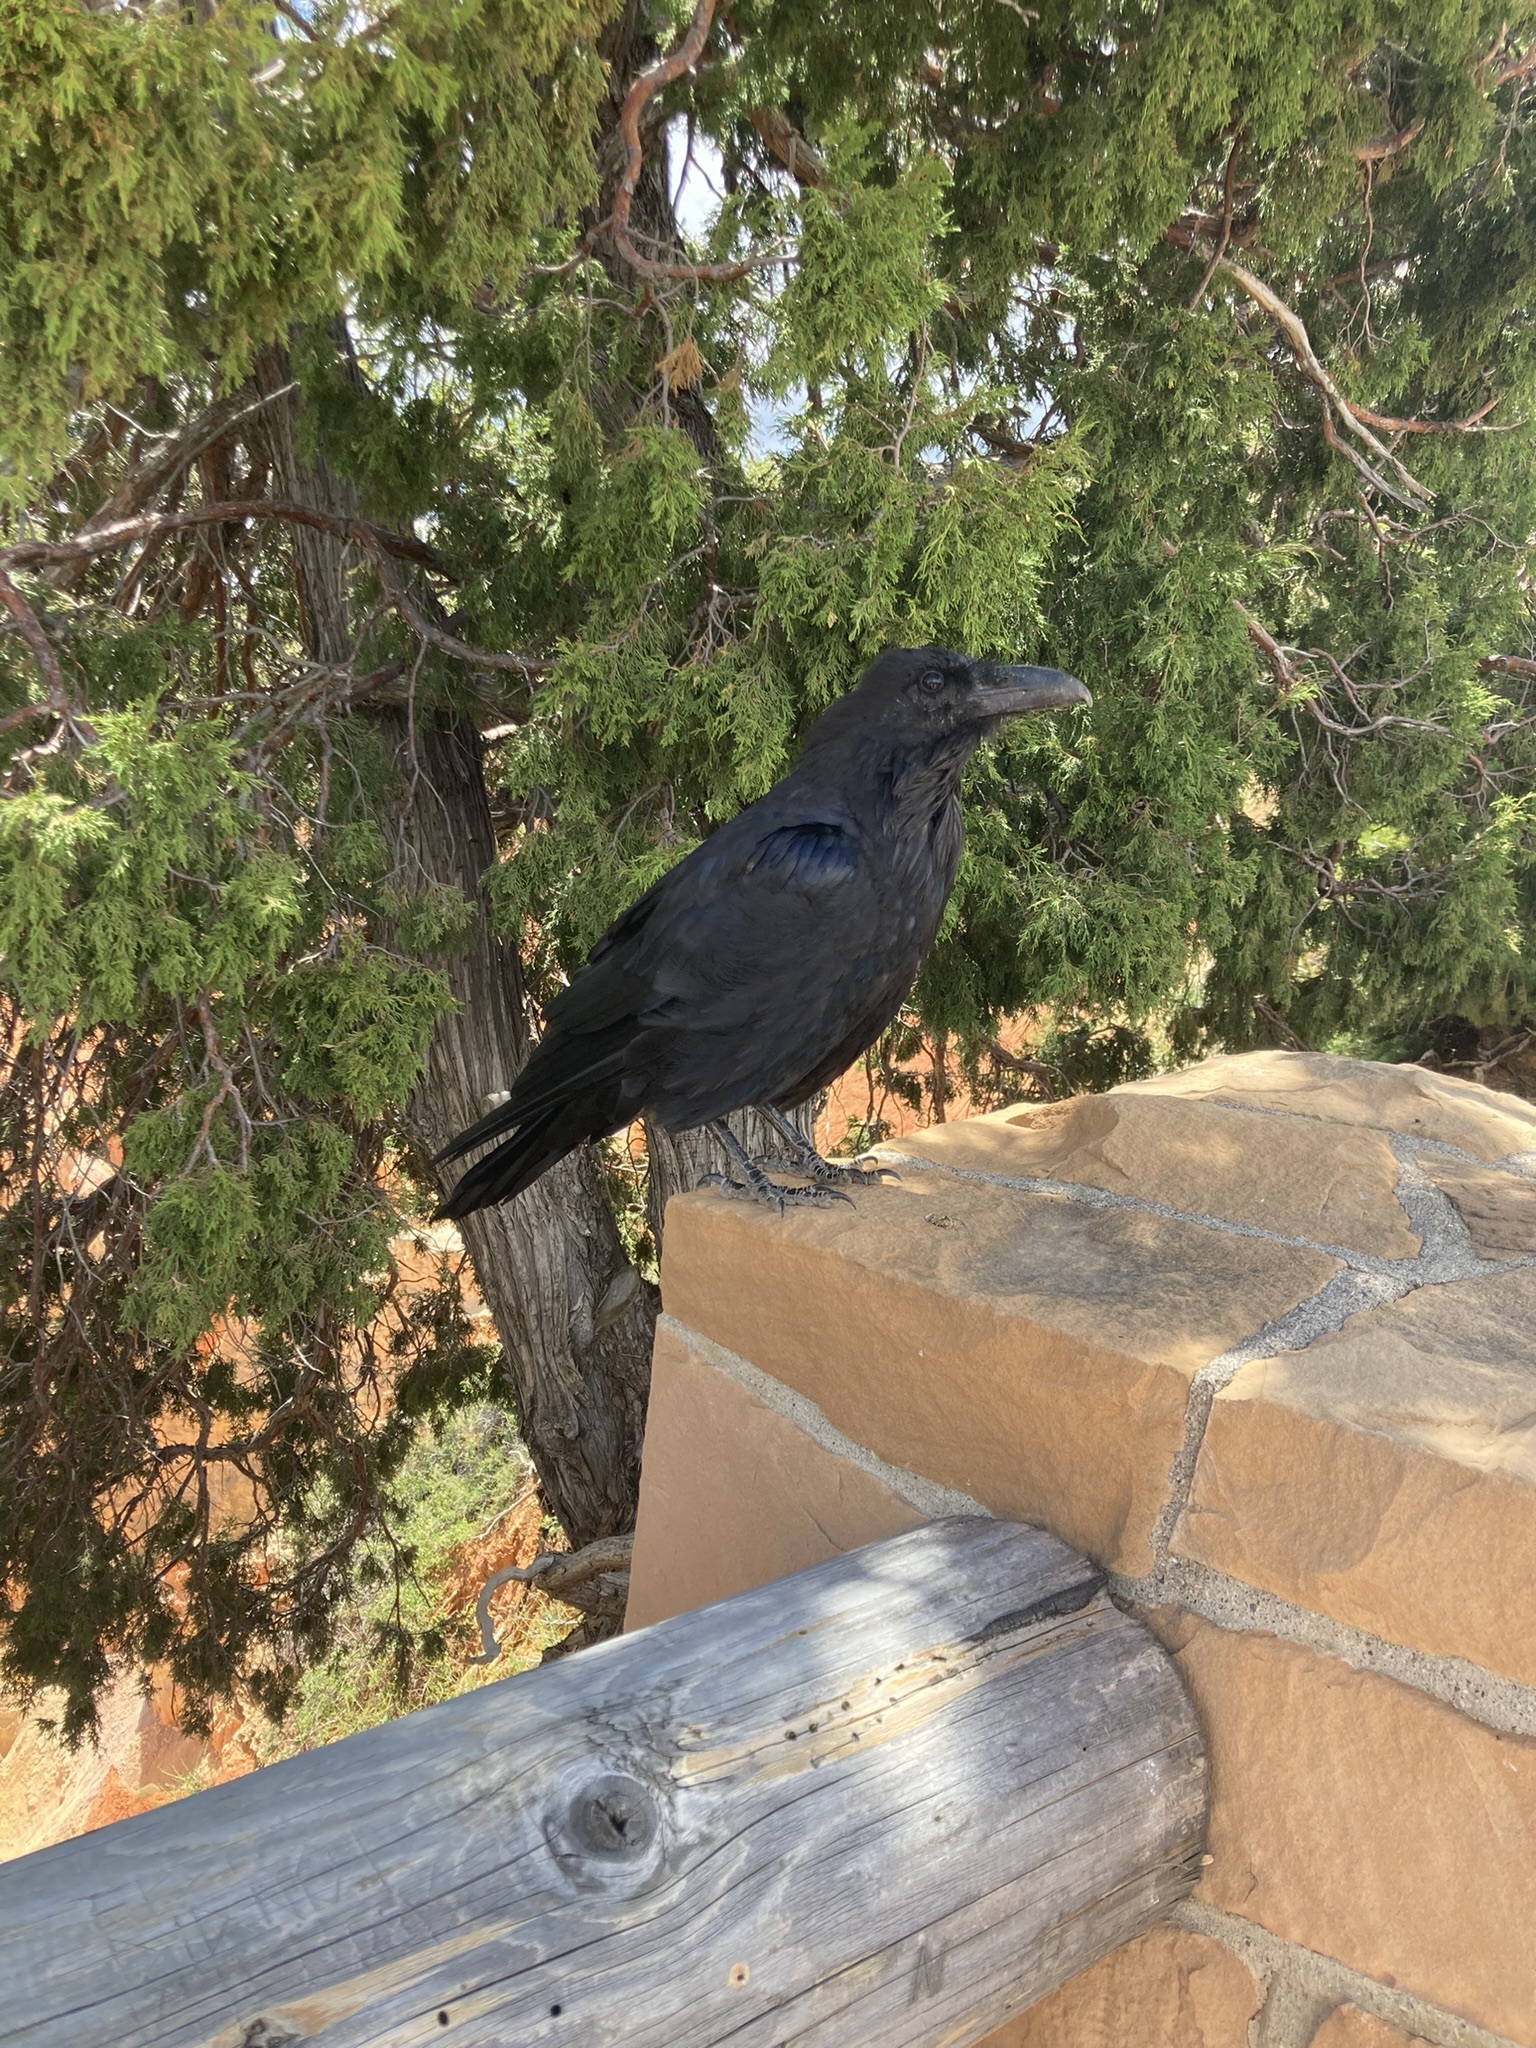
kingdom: Animalia
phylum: Chordata
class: Aves
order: Passeriformes
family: Corvidae
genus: Corvus
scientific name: Corvus corax
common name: Common raven
